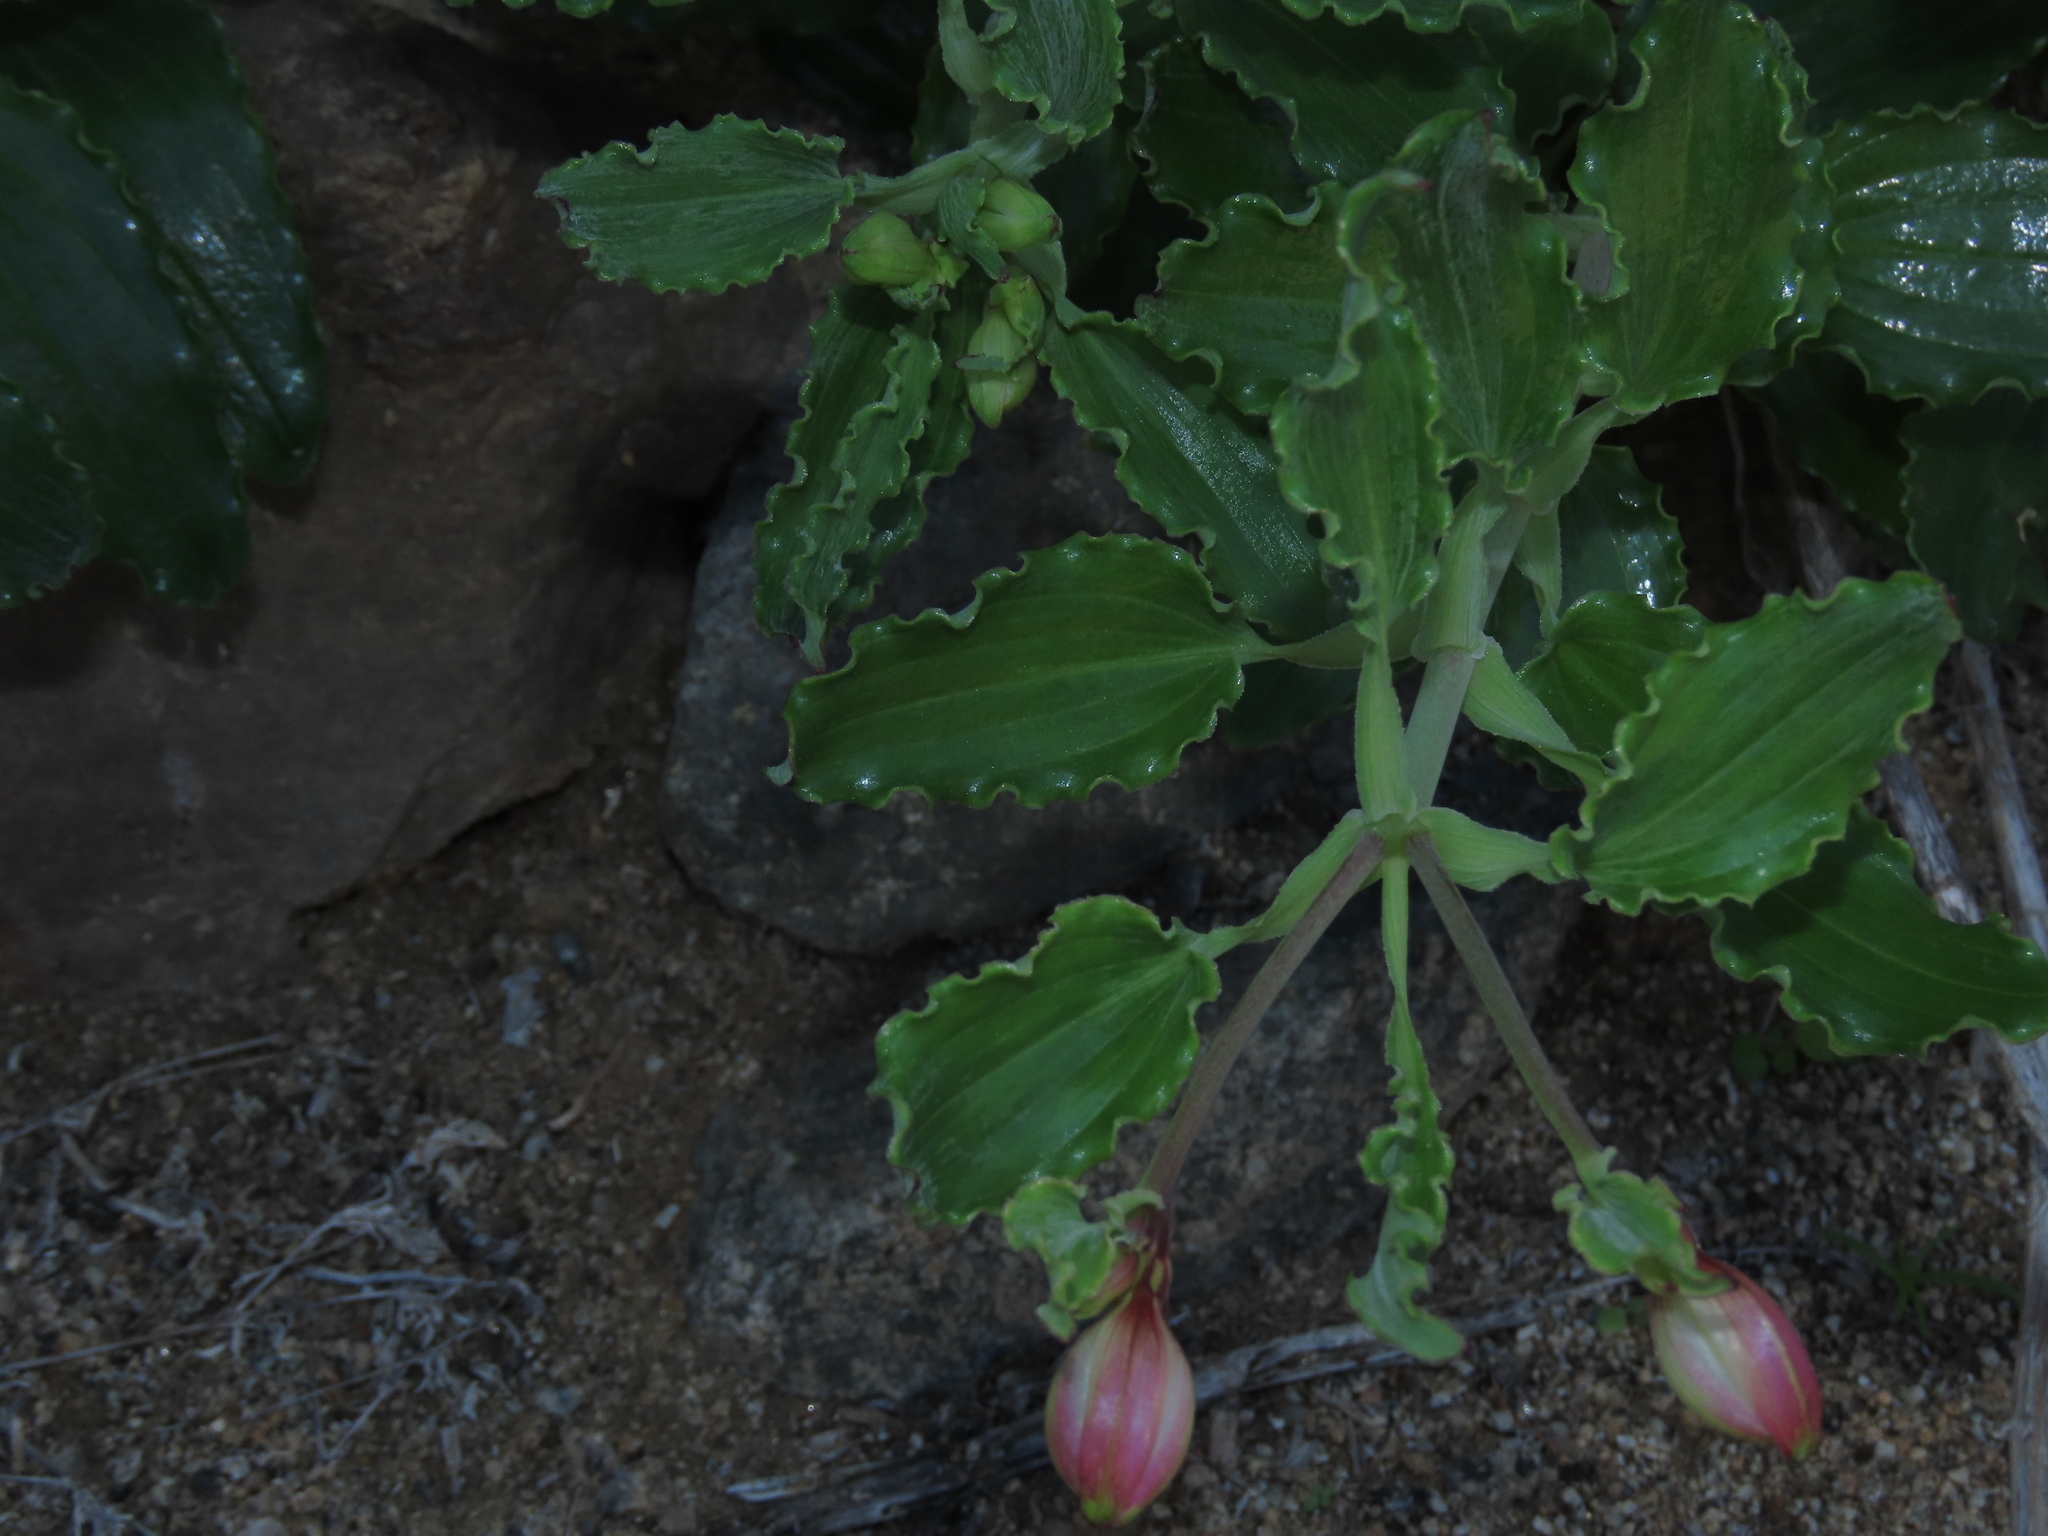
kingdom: Plantae
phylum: Tracheophyta
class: Liliopsida
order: Liliales
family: Alstroemeriaceae
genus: Alstroemeria
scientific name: Alstroemeria violacea
